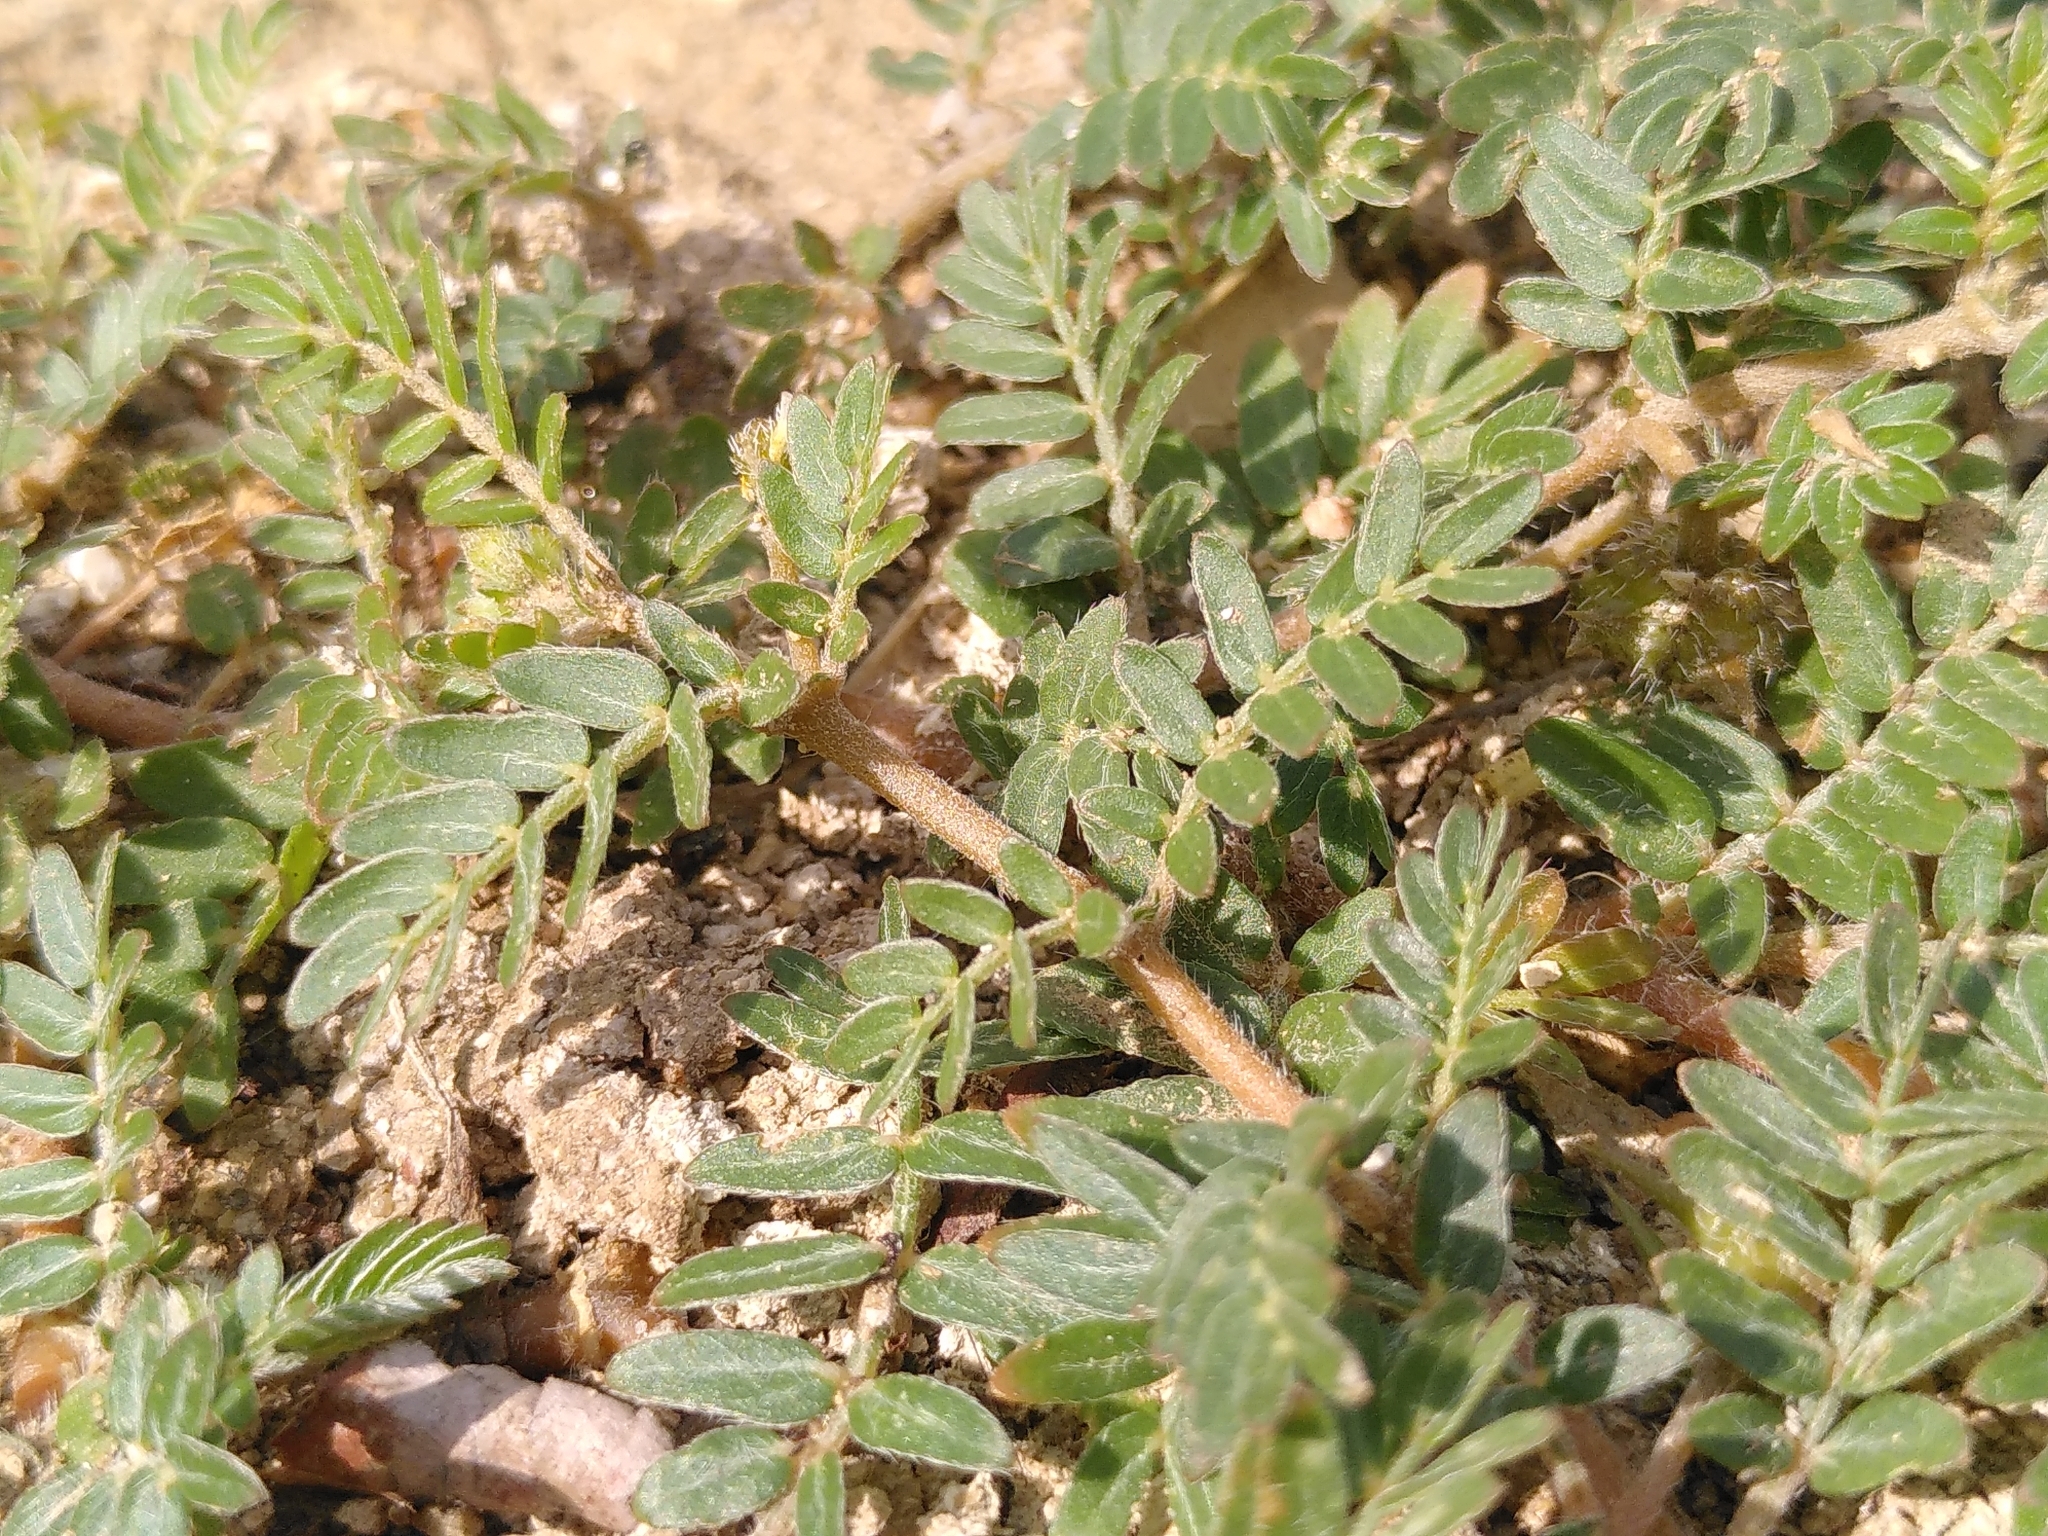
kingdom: Plantae
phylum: Tracheophyta
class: Magnoliopsida
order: Zygophyllales
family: Zygophyllaceae
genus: Tribulus
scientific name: Tribulus terrestris
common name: Puncturevine
